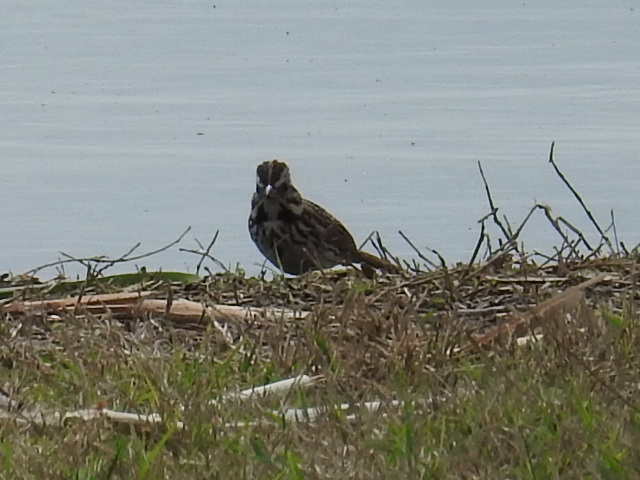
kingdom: Animalia
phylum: Chordata
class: Aves
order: Passeriformes
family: Passerellidae
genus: Melospiza
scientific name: Melospiza melodia
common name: Song sparrow
